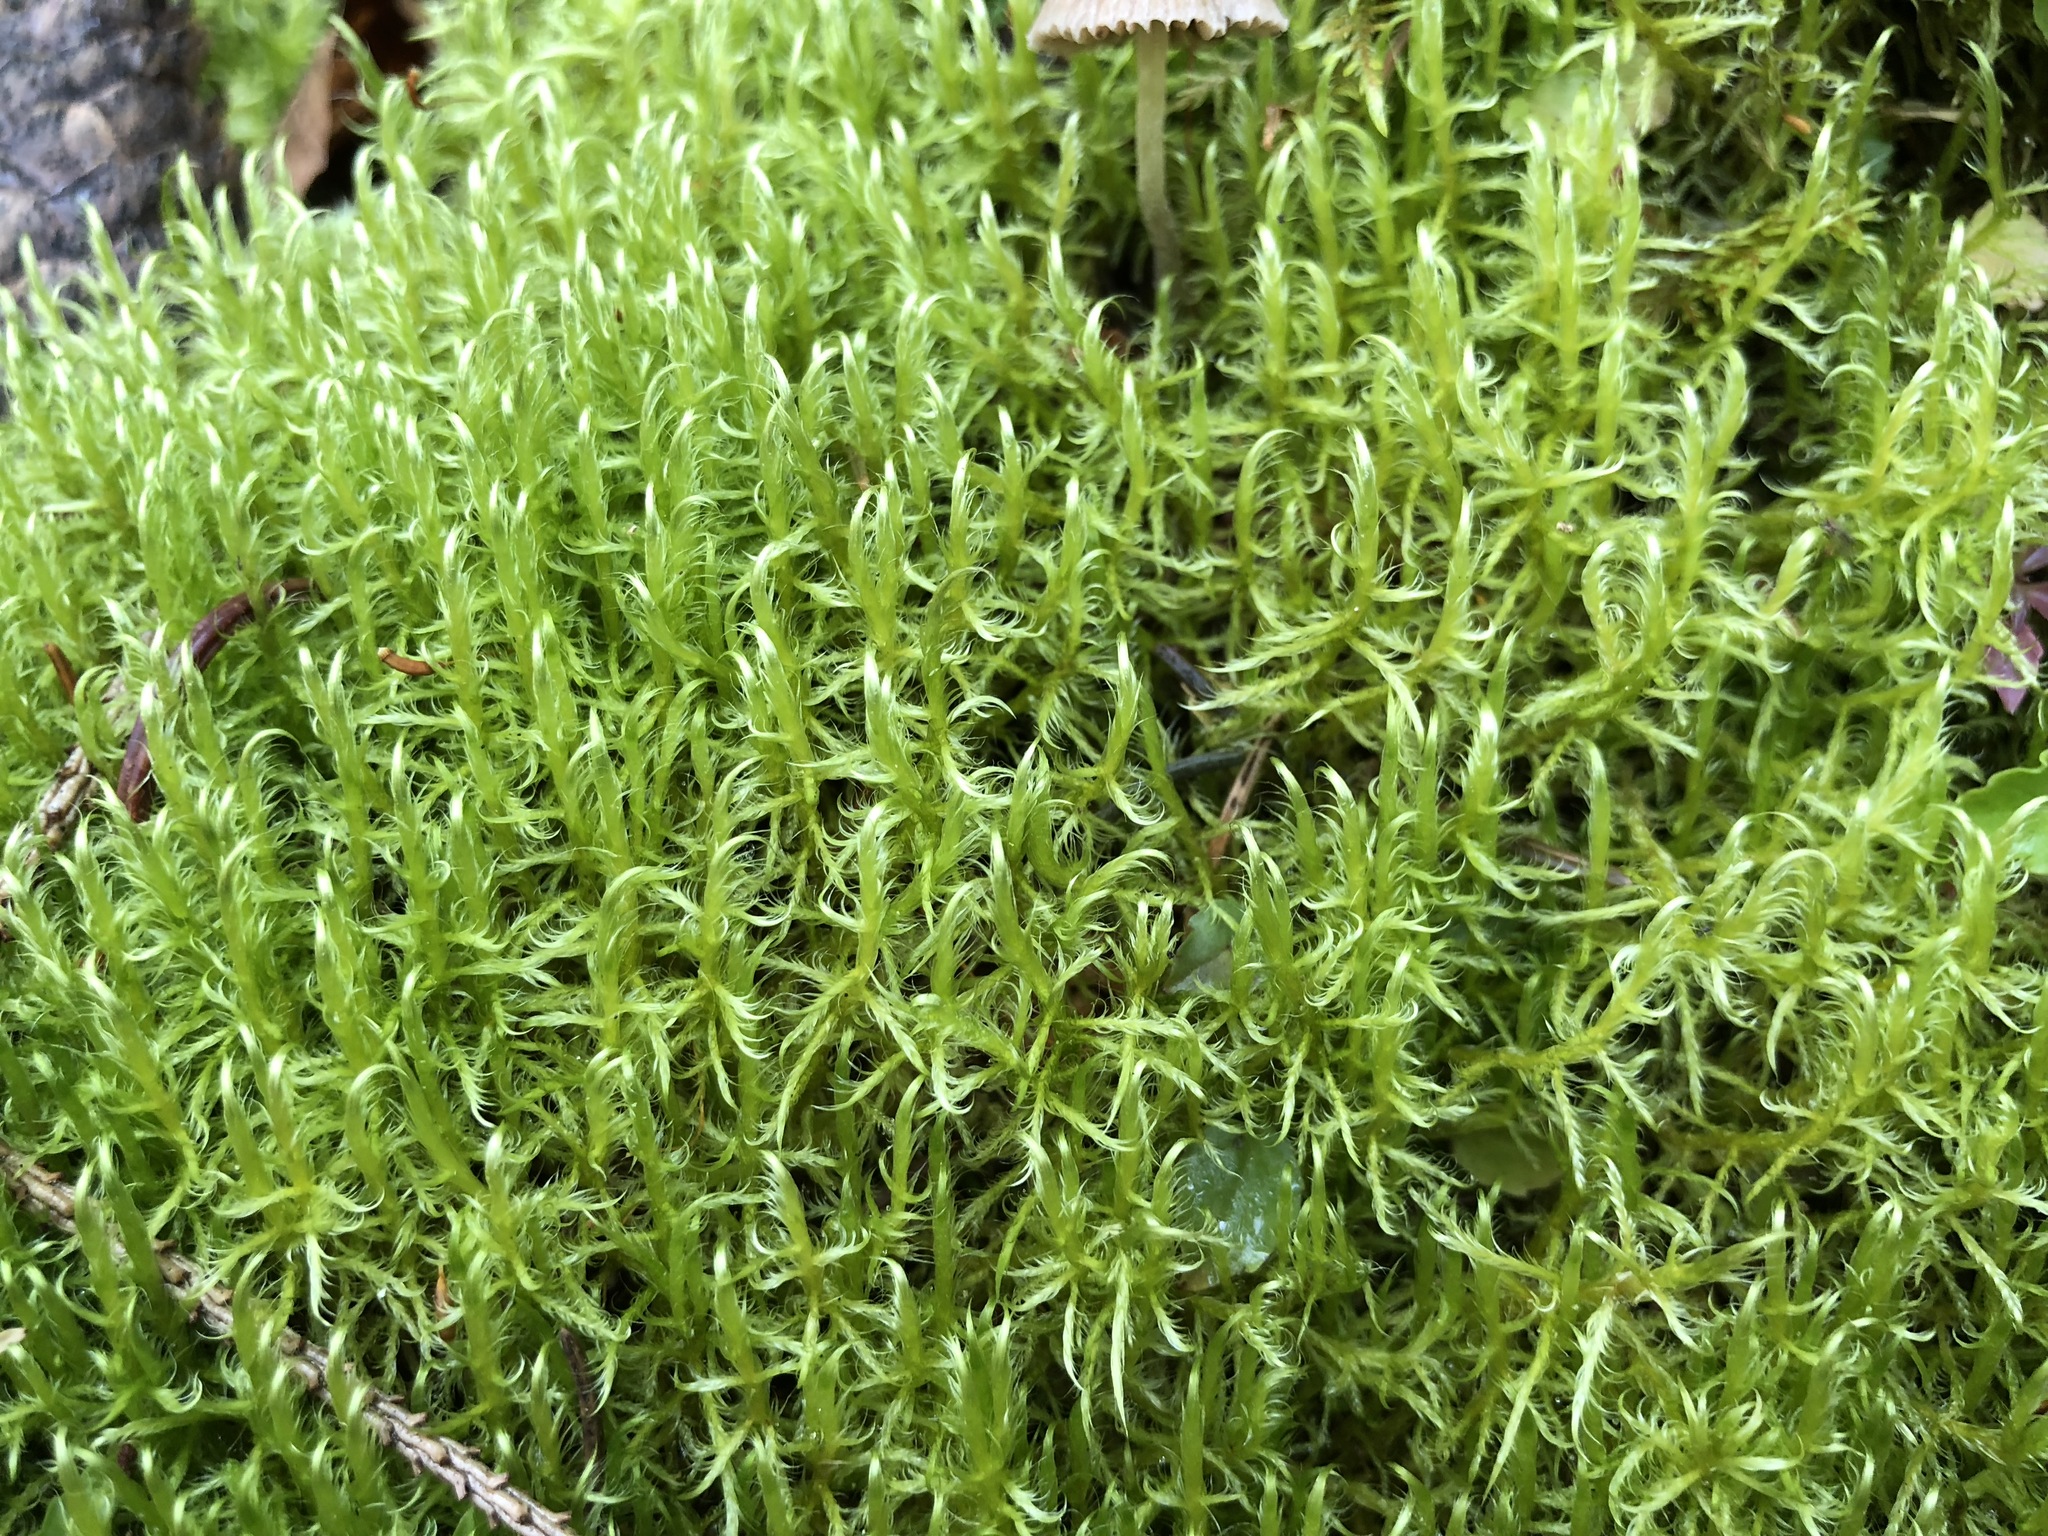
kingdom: Plantae
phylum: Bryophyta
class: Bryopsida
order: Hypnales
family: Scorpidiaceae
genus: Sanionia
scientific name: Sanionia uncinata
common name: Sickle moss
